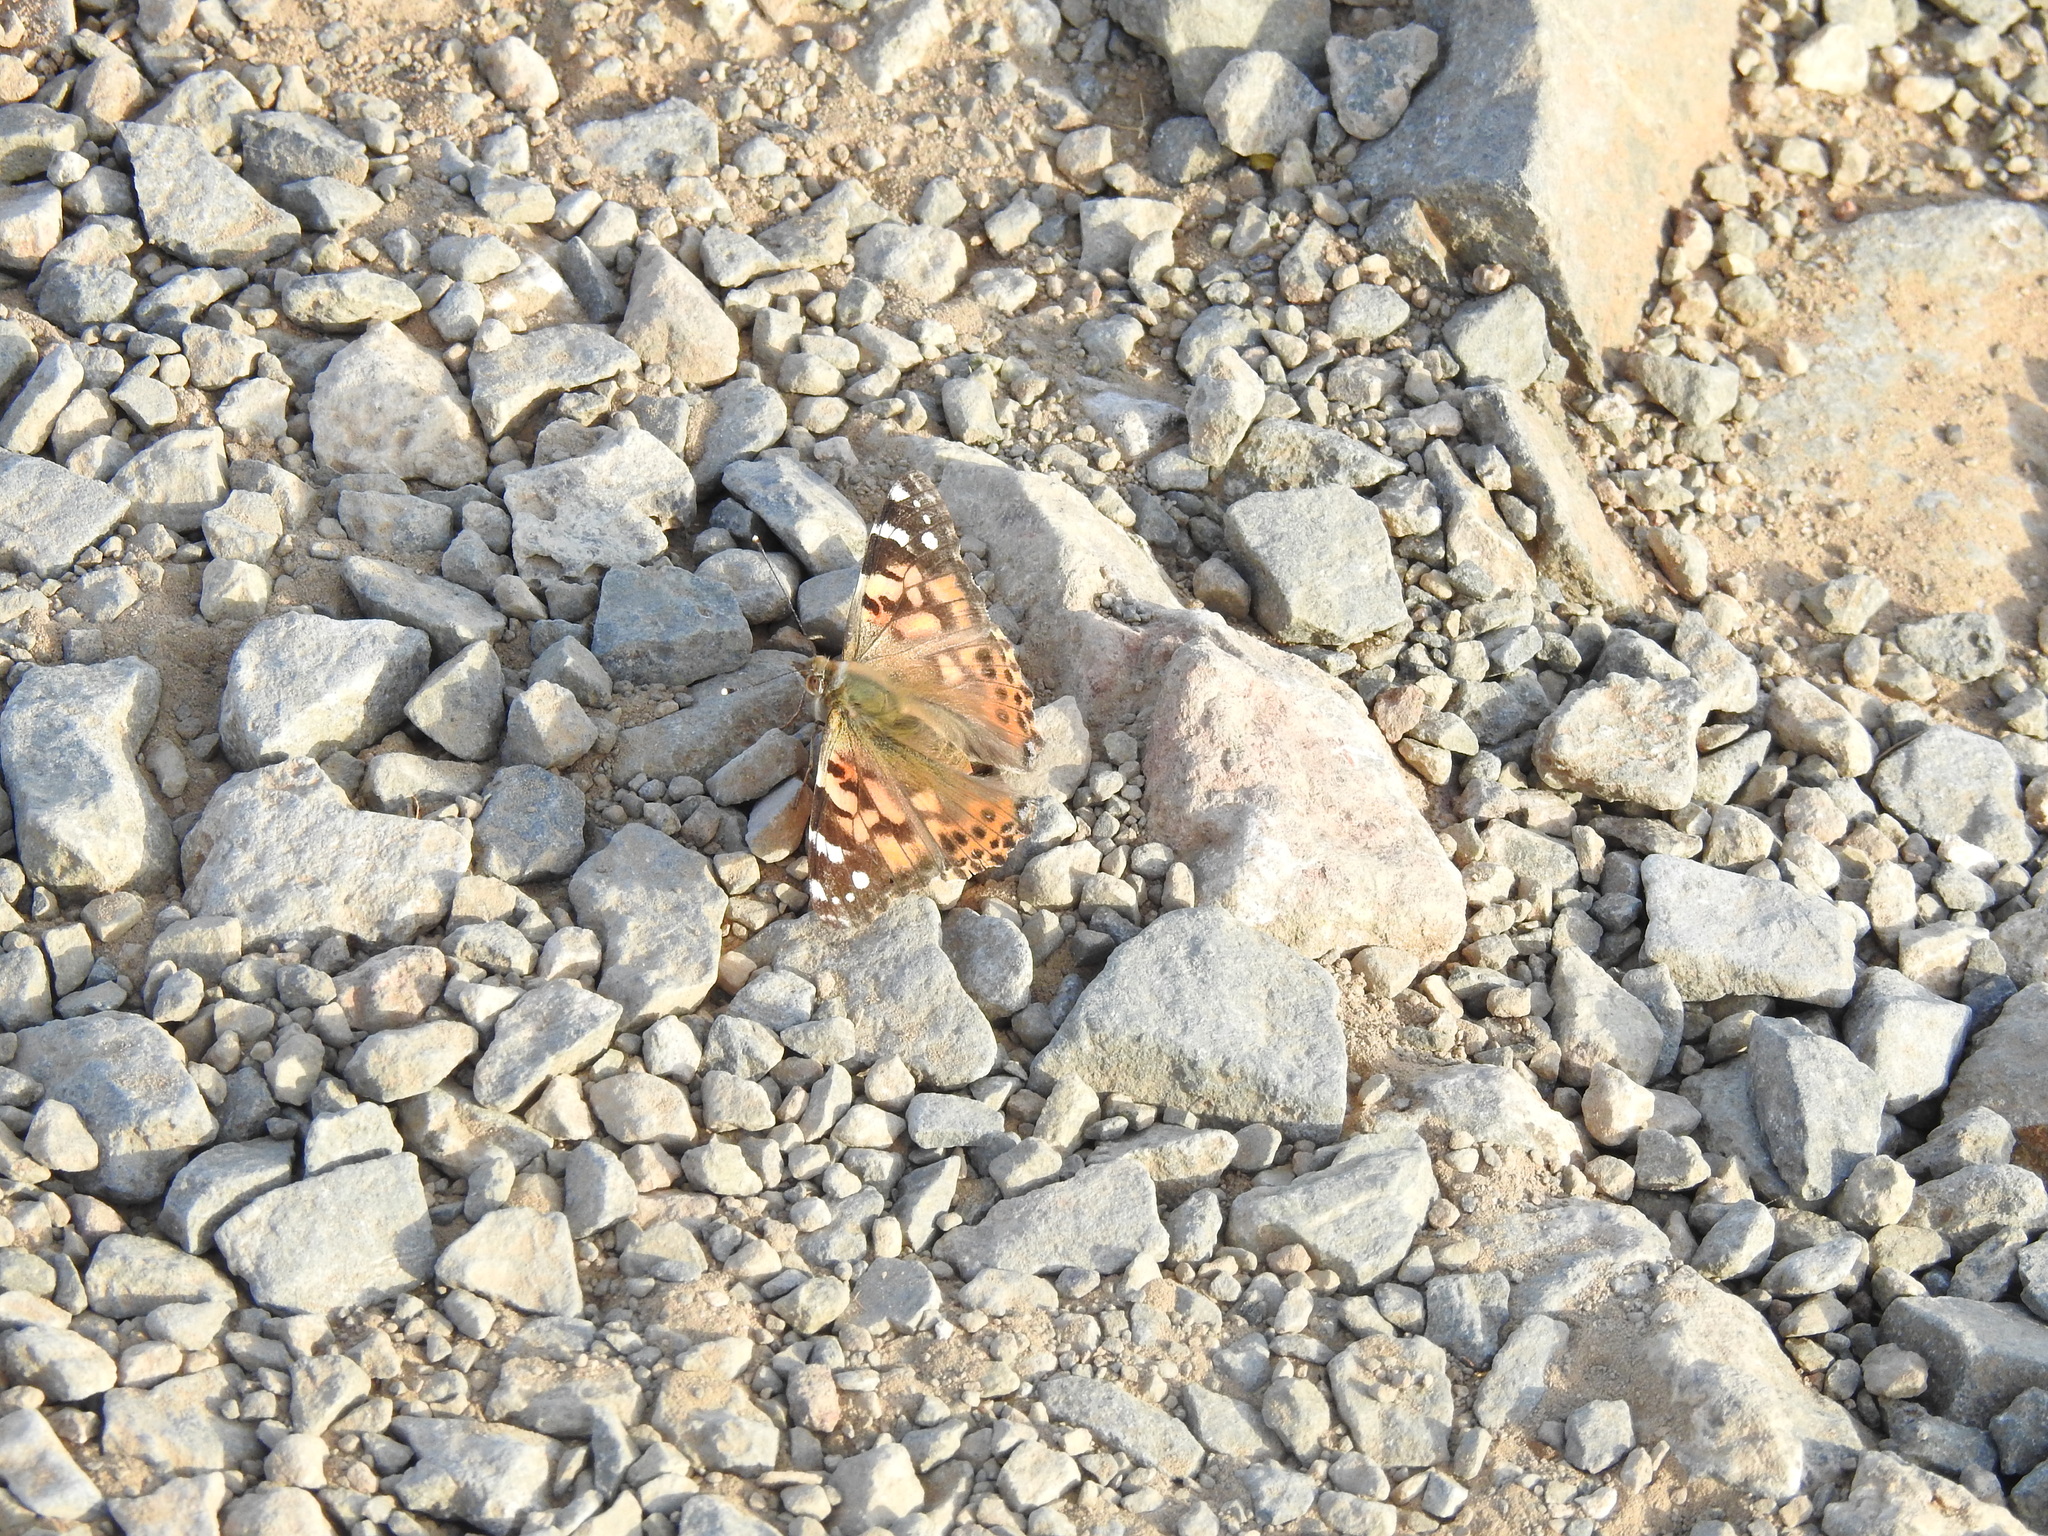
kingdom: Animalia
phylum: Arthropoda
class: Insecta
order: Lepidoptera
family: Nymphalidae
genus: Vanessa
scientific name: Vanessa cardui
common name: Painted lady
